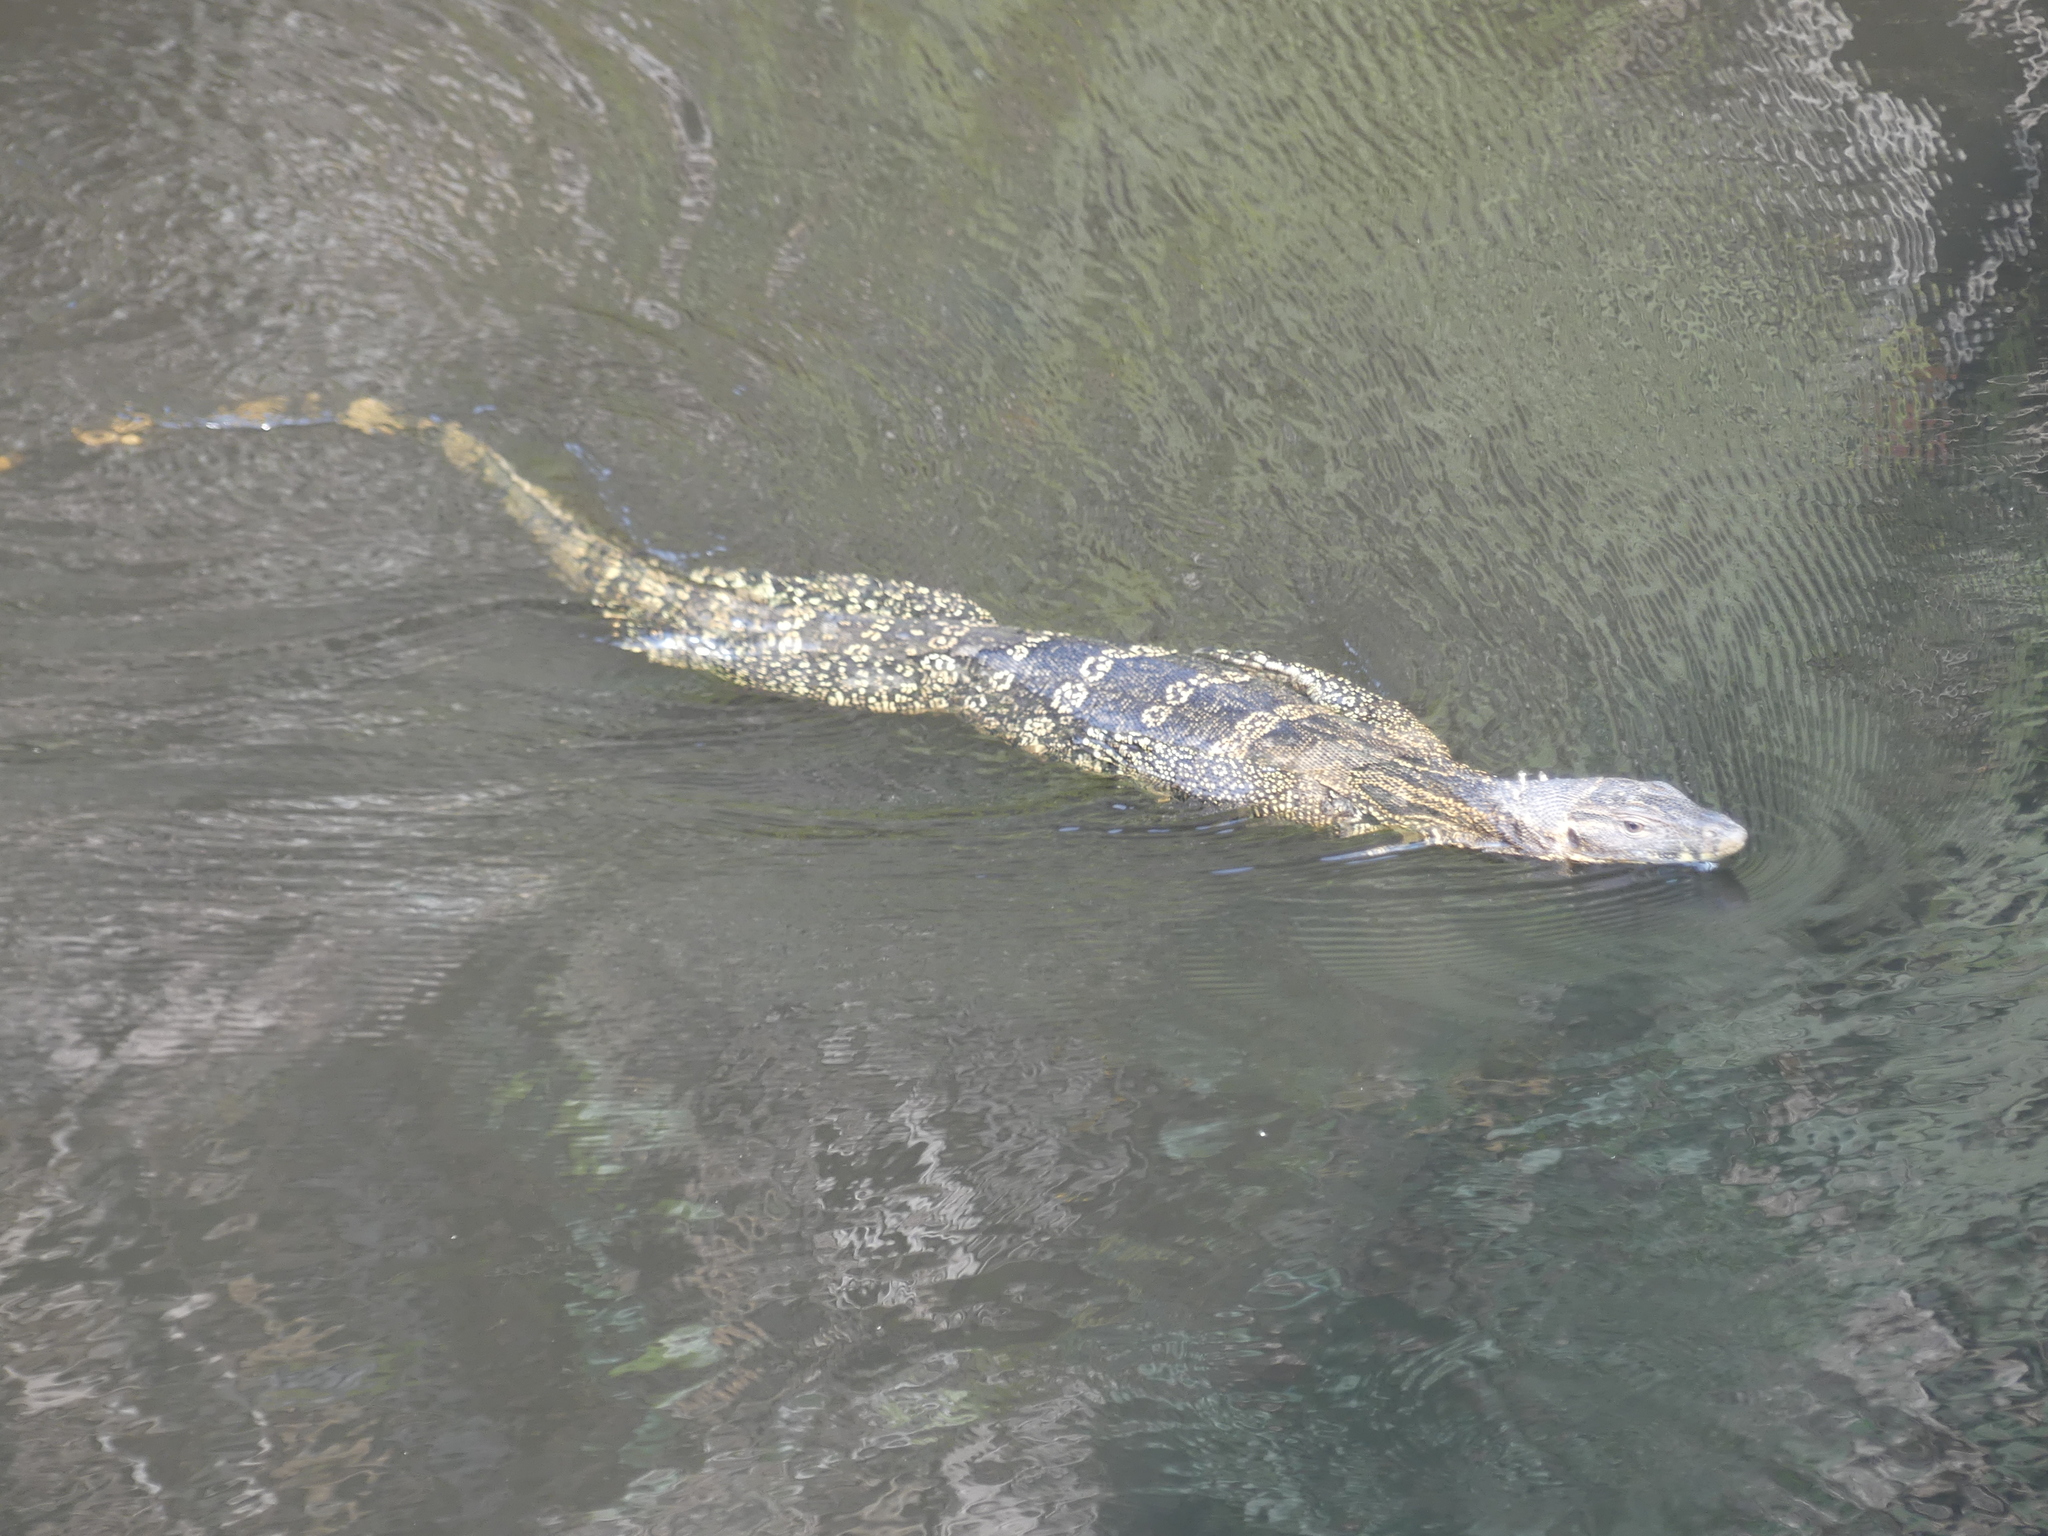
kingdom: Animalia
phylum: Chordata
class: Squamata
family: Varanidae
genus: Varanus
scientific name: Varanus salvator
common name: Common water monitor
